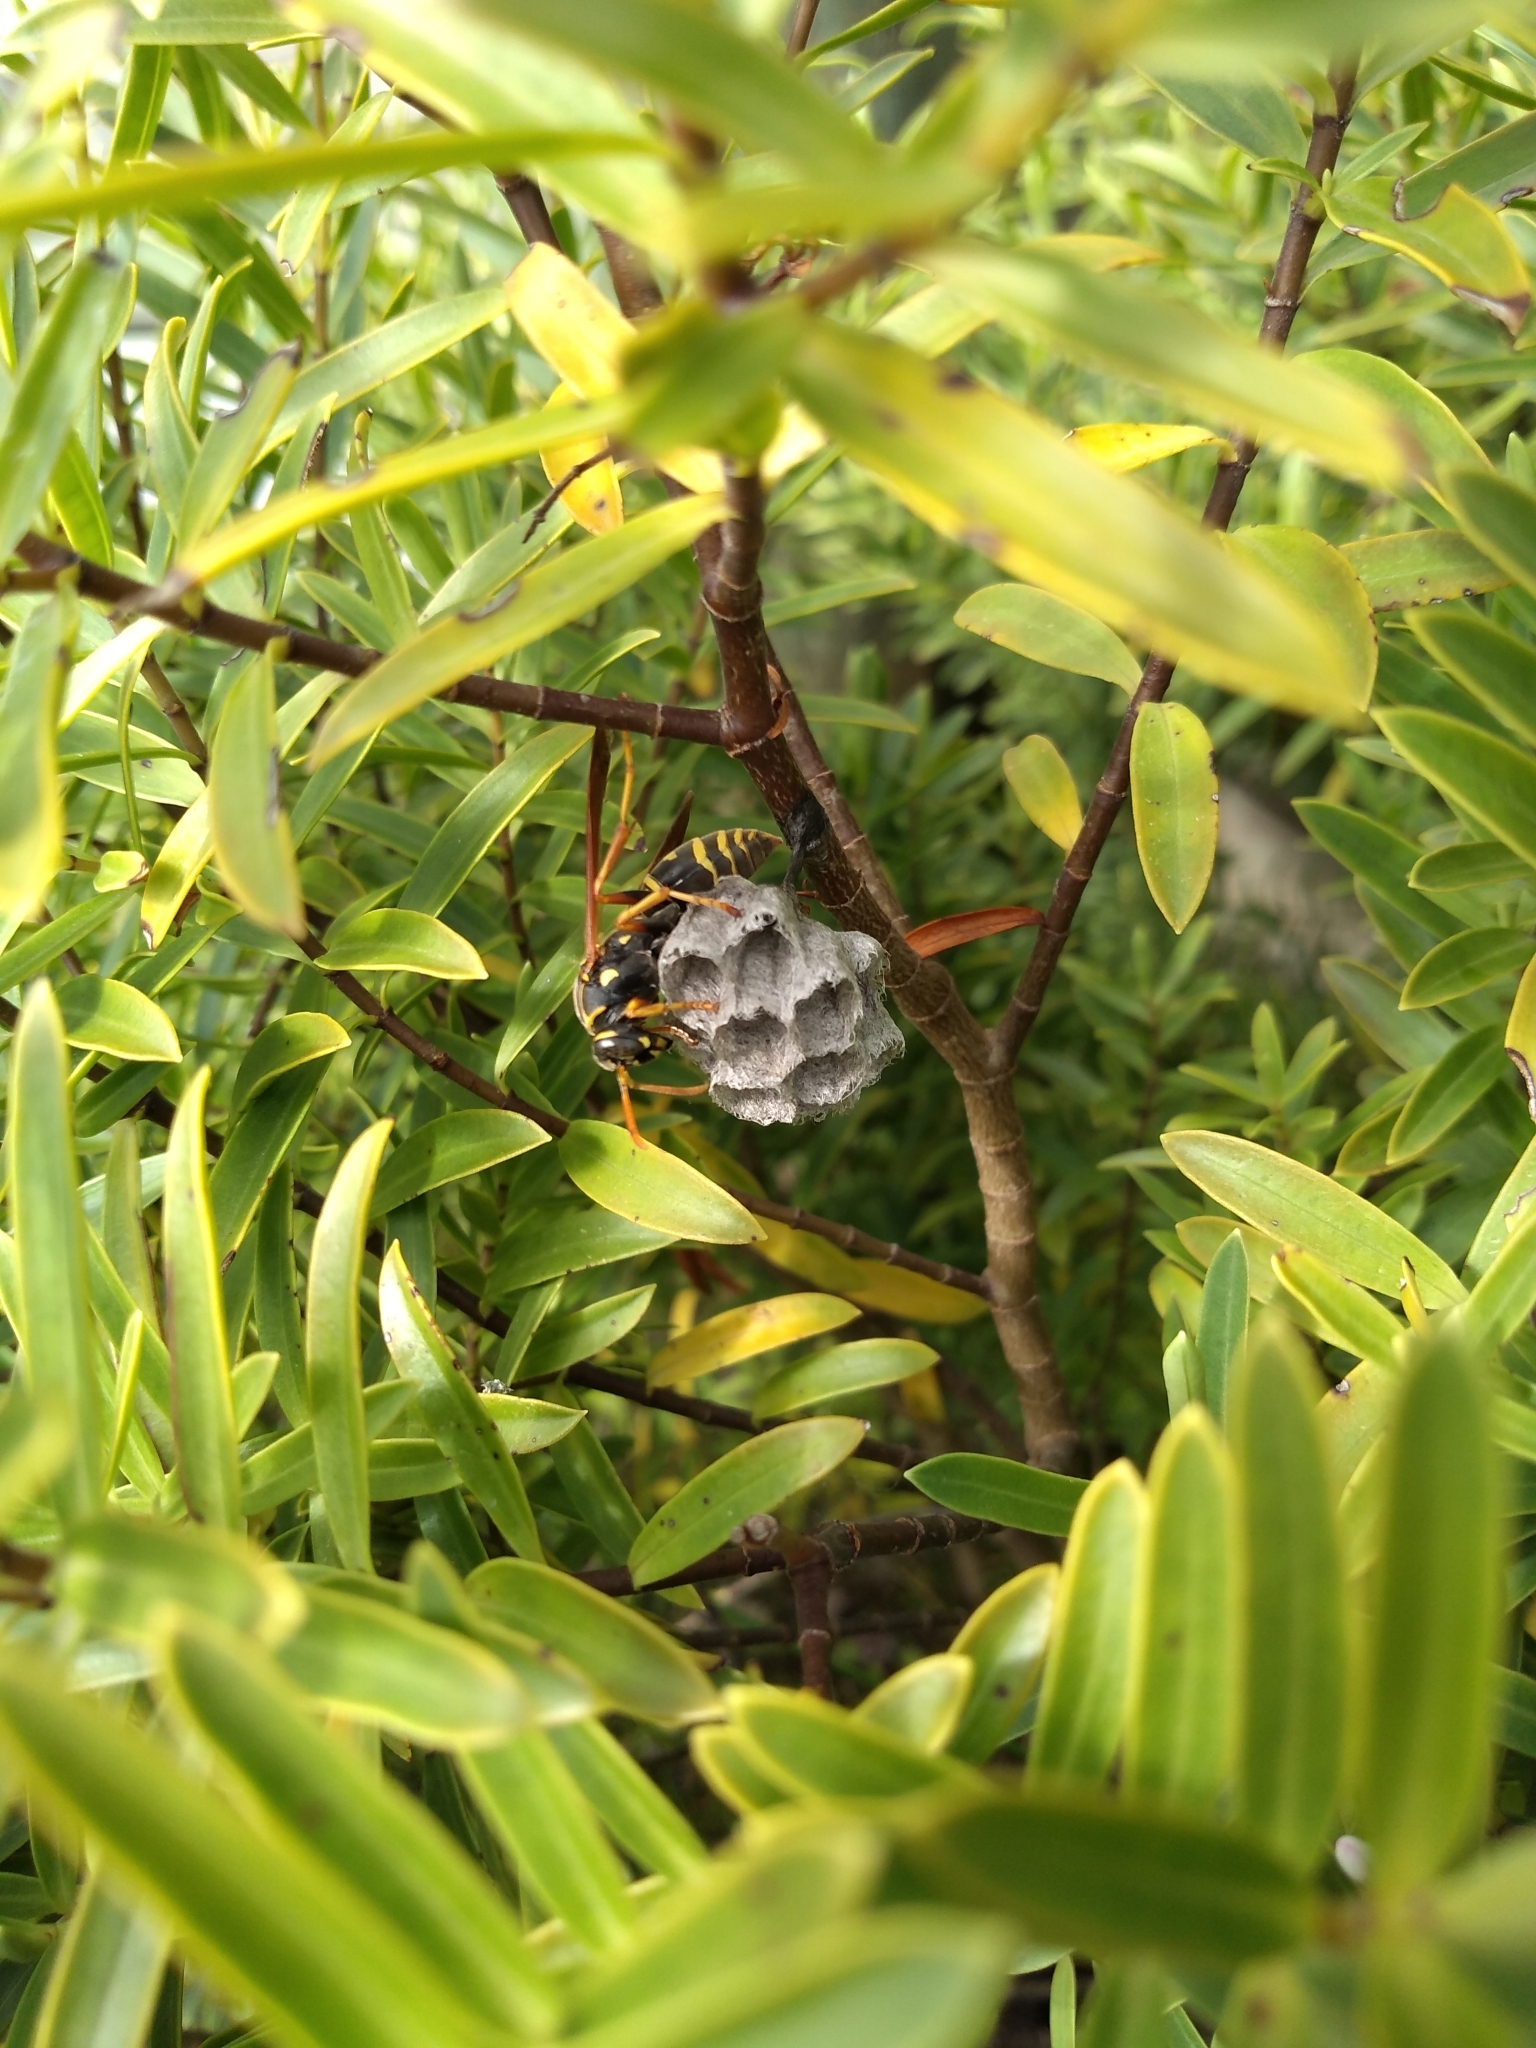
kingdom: Animalia
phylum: Arthropoda
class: Insecta
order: Hymenoptera
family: Eumenidae
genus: Polistes
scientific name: Polistes chinensis
